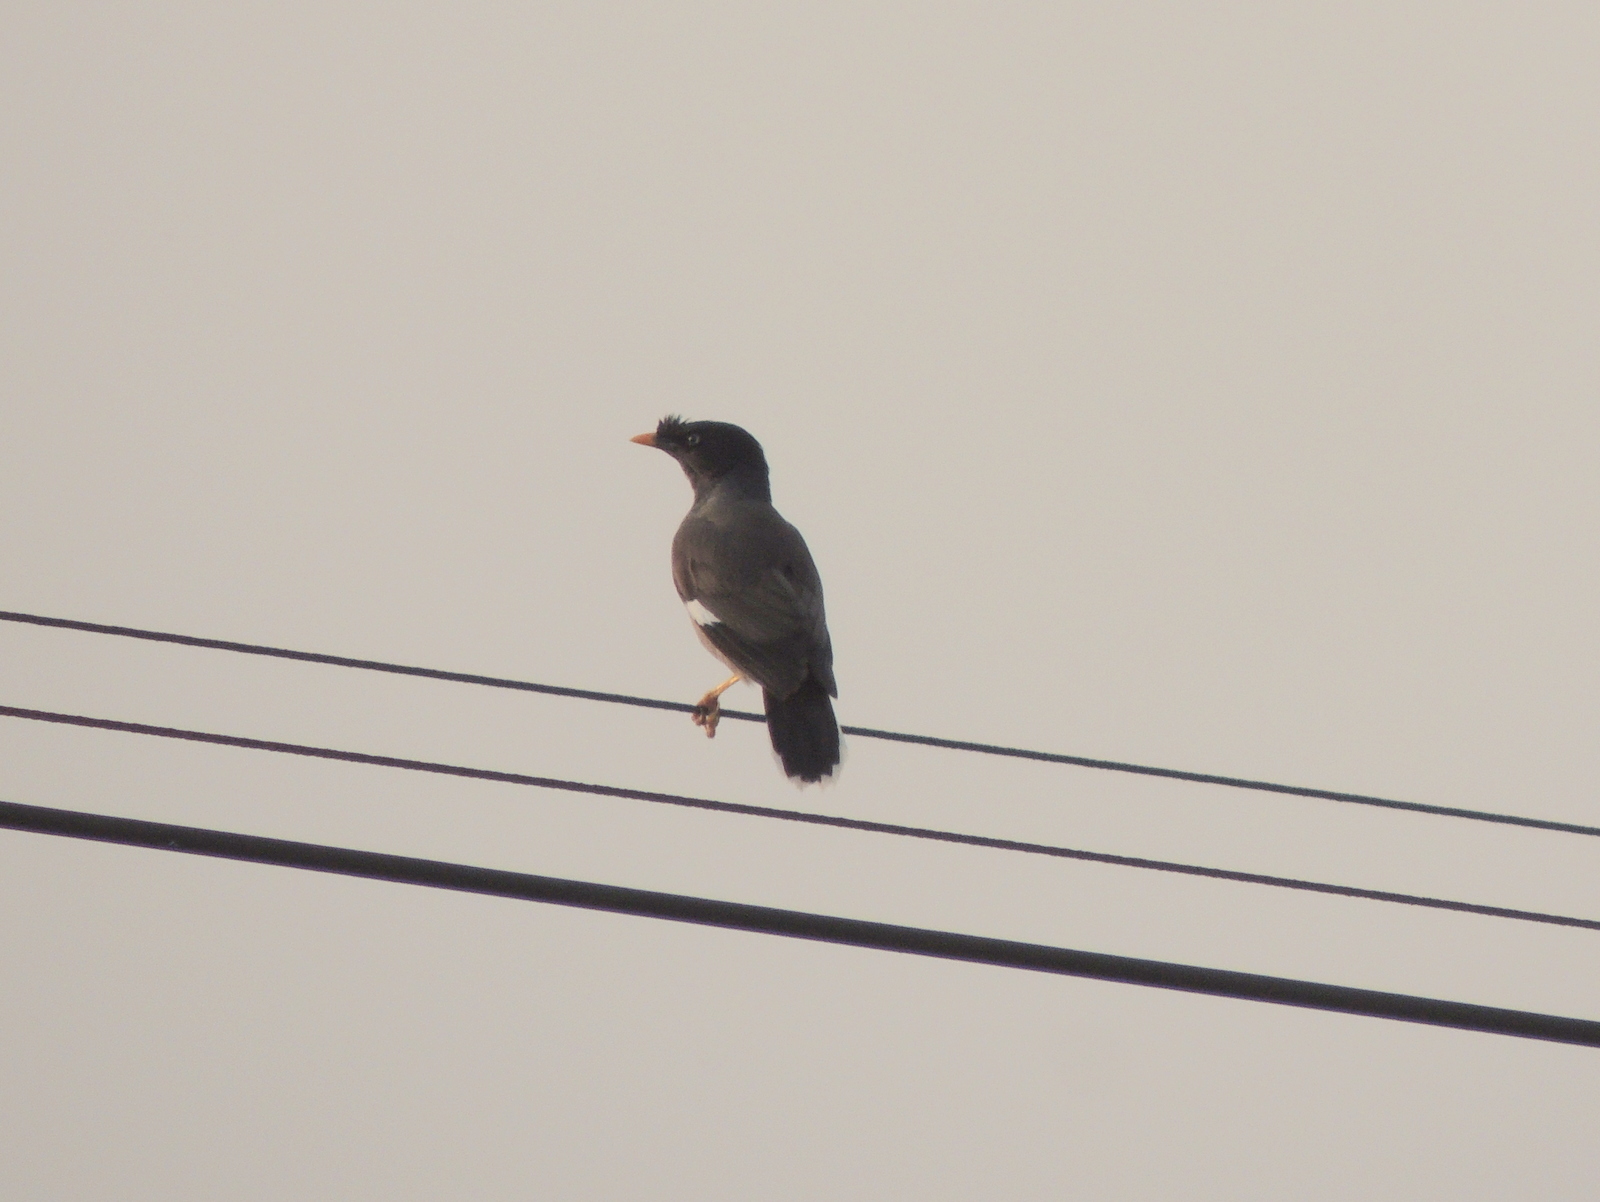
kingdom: Animalia
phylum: Chordata
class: Aves
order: Passeriformes
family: Sturnidae
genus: Acridotheres
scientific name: Acridotheres fuscus
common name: Jungle myna
